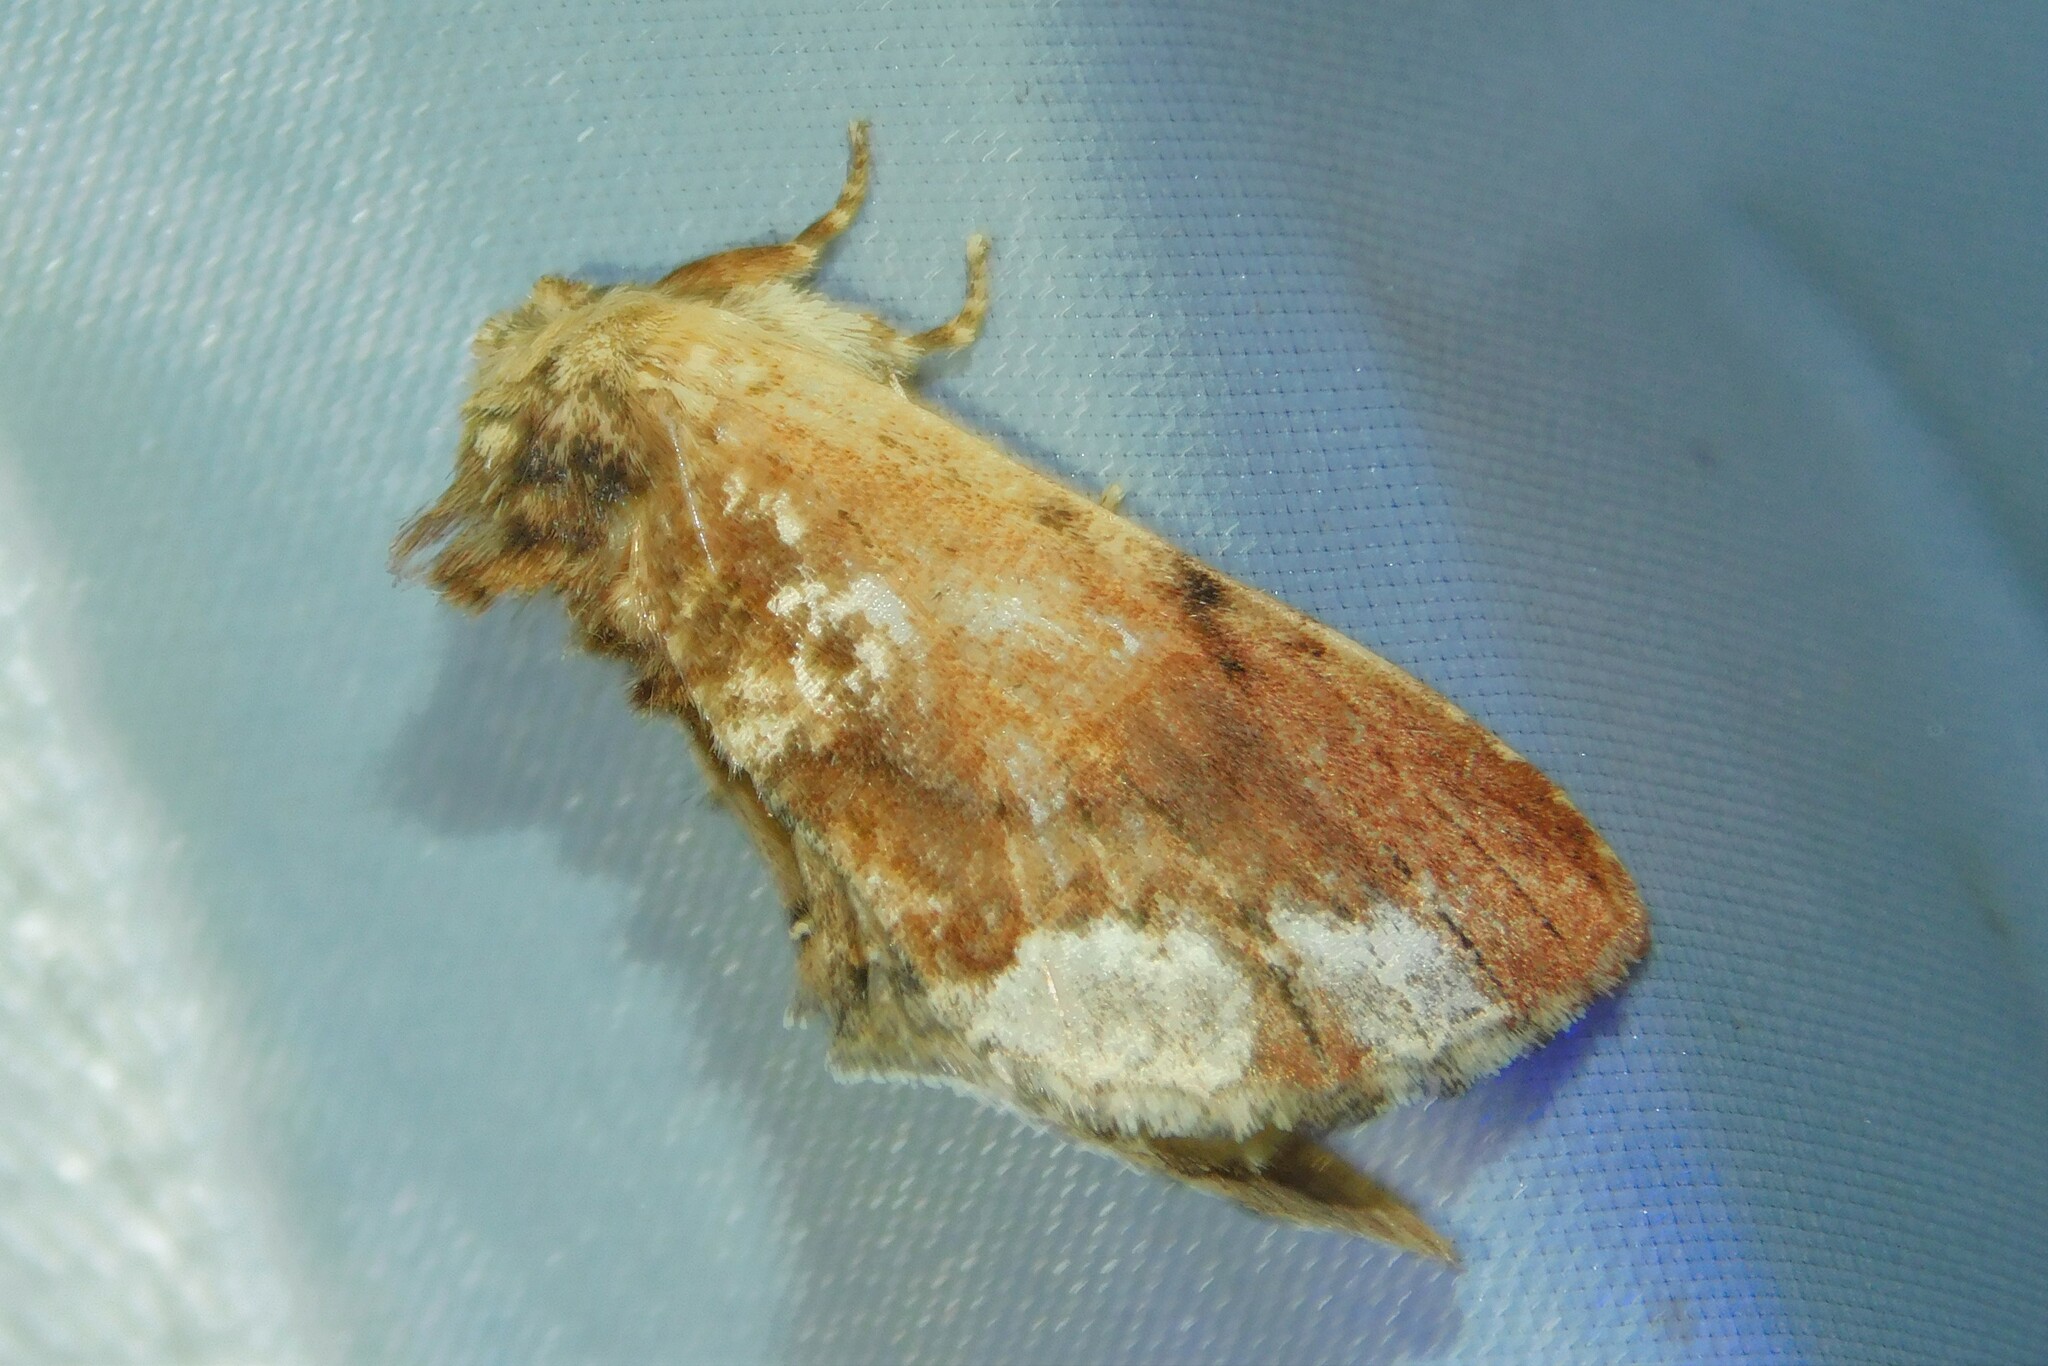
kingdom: Animalia
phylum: Arthropoda
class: Insecta
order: Lepidoptera
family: Notodontidae
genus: Ptilodon
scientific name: Ptilodon cucullina
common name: Maple prominent
